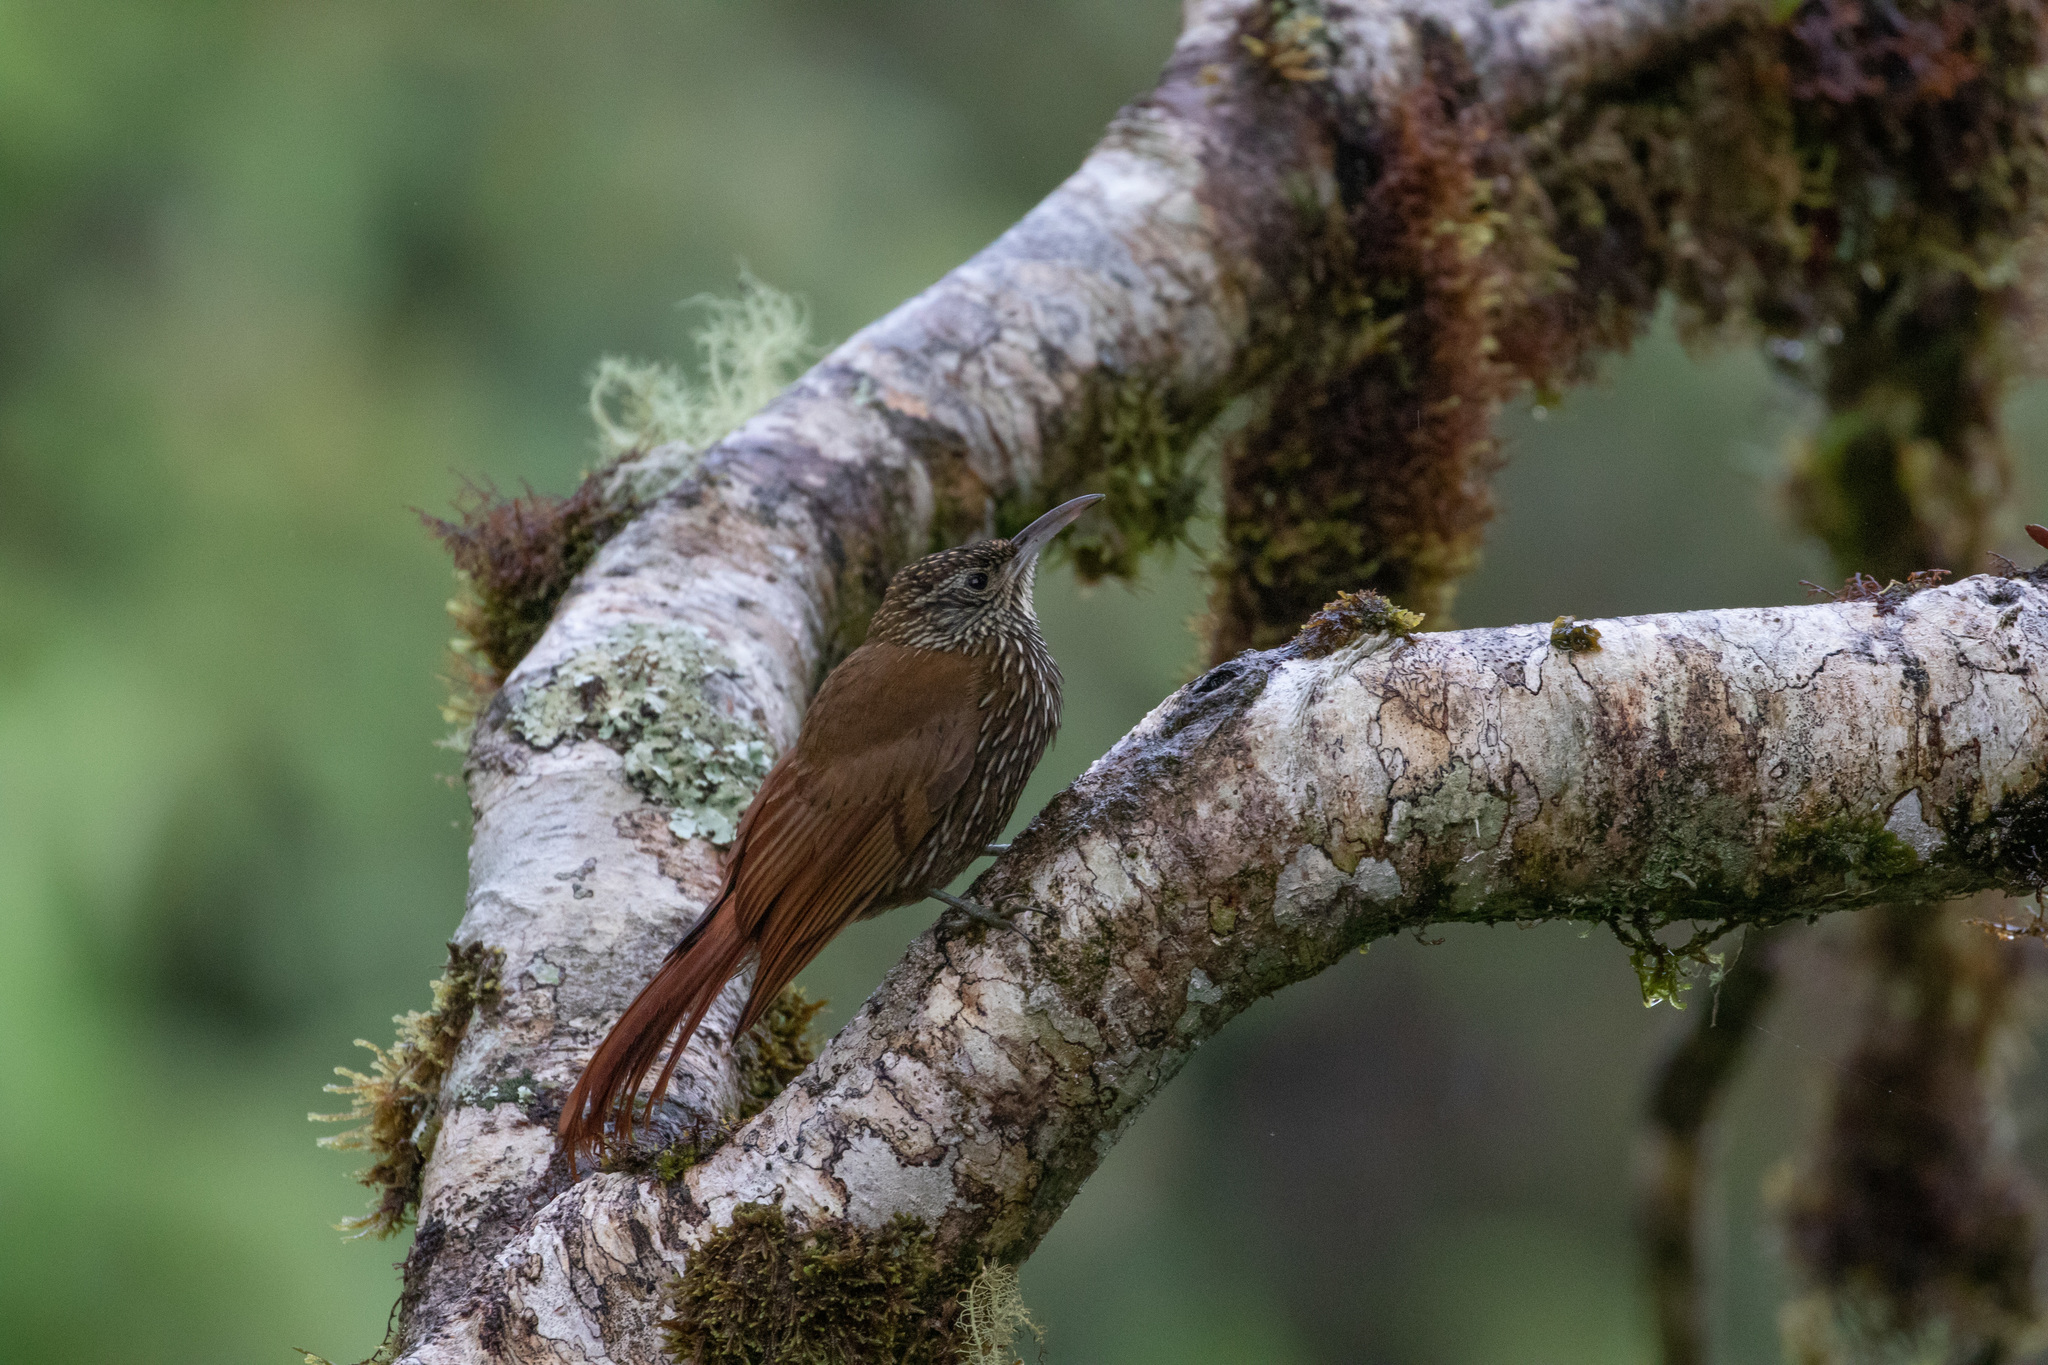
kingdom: Animalia
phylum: Chordata
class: Aves
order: Passeriformes
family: Furnariidae
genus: Lepidocolaptes
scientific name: Lepidocolaptes lacrymiger
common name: Montane woodcreeper
